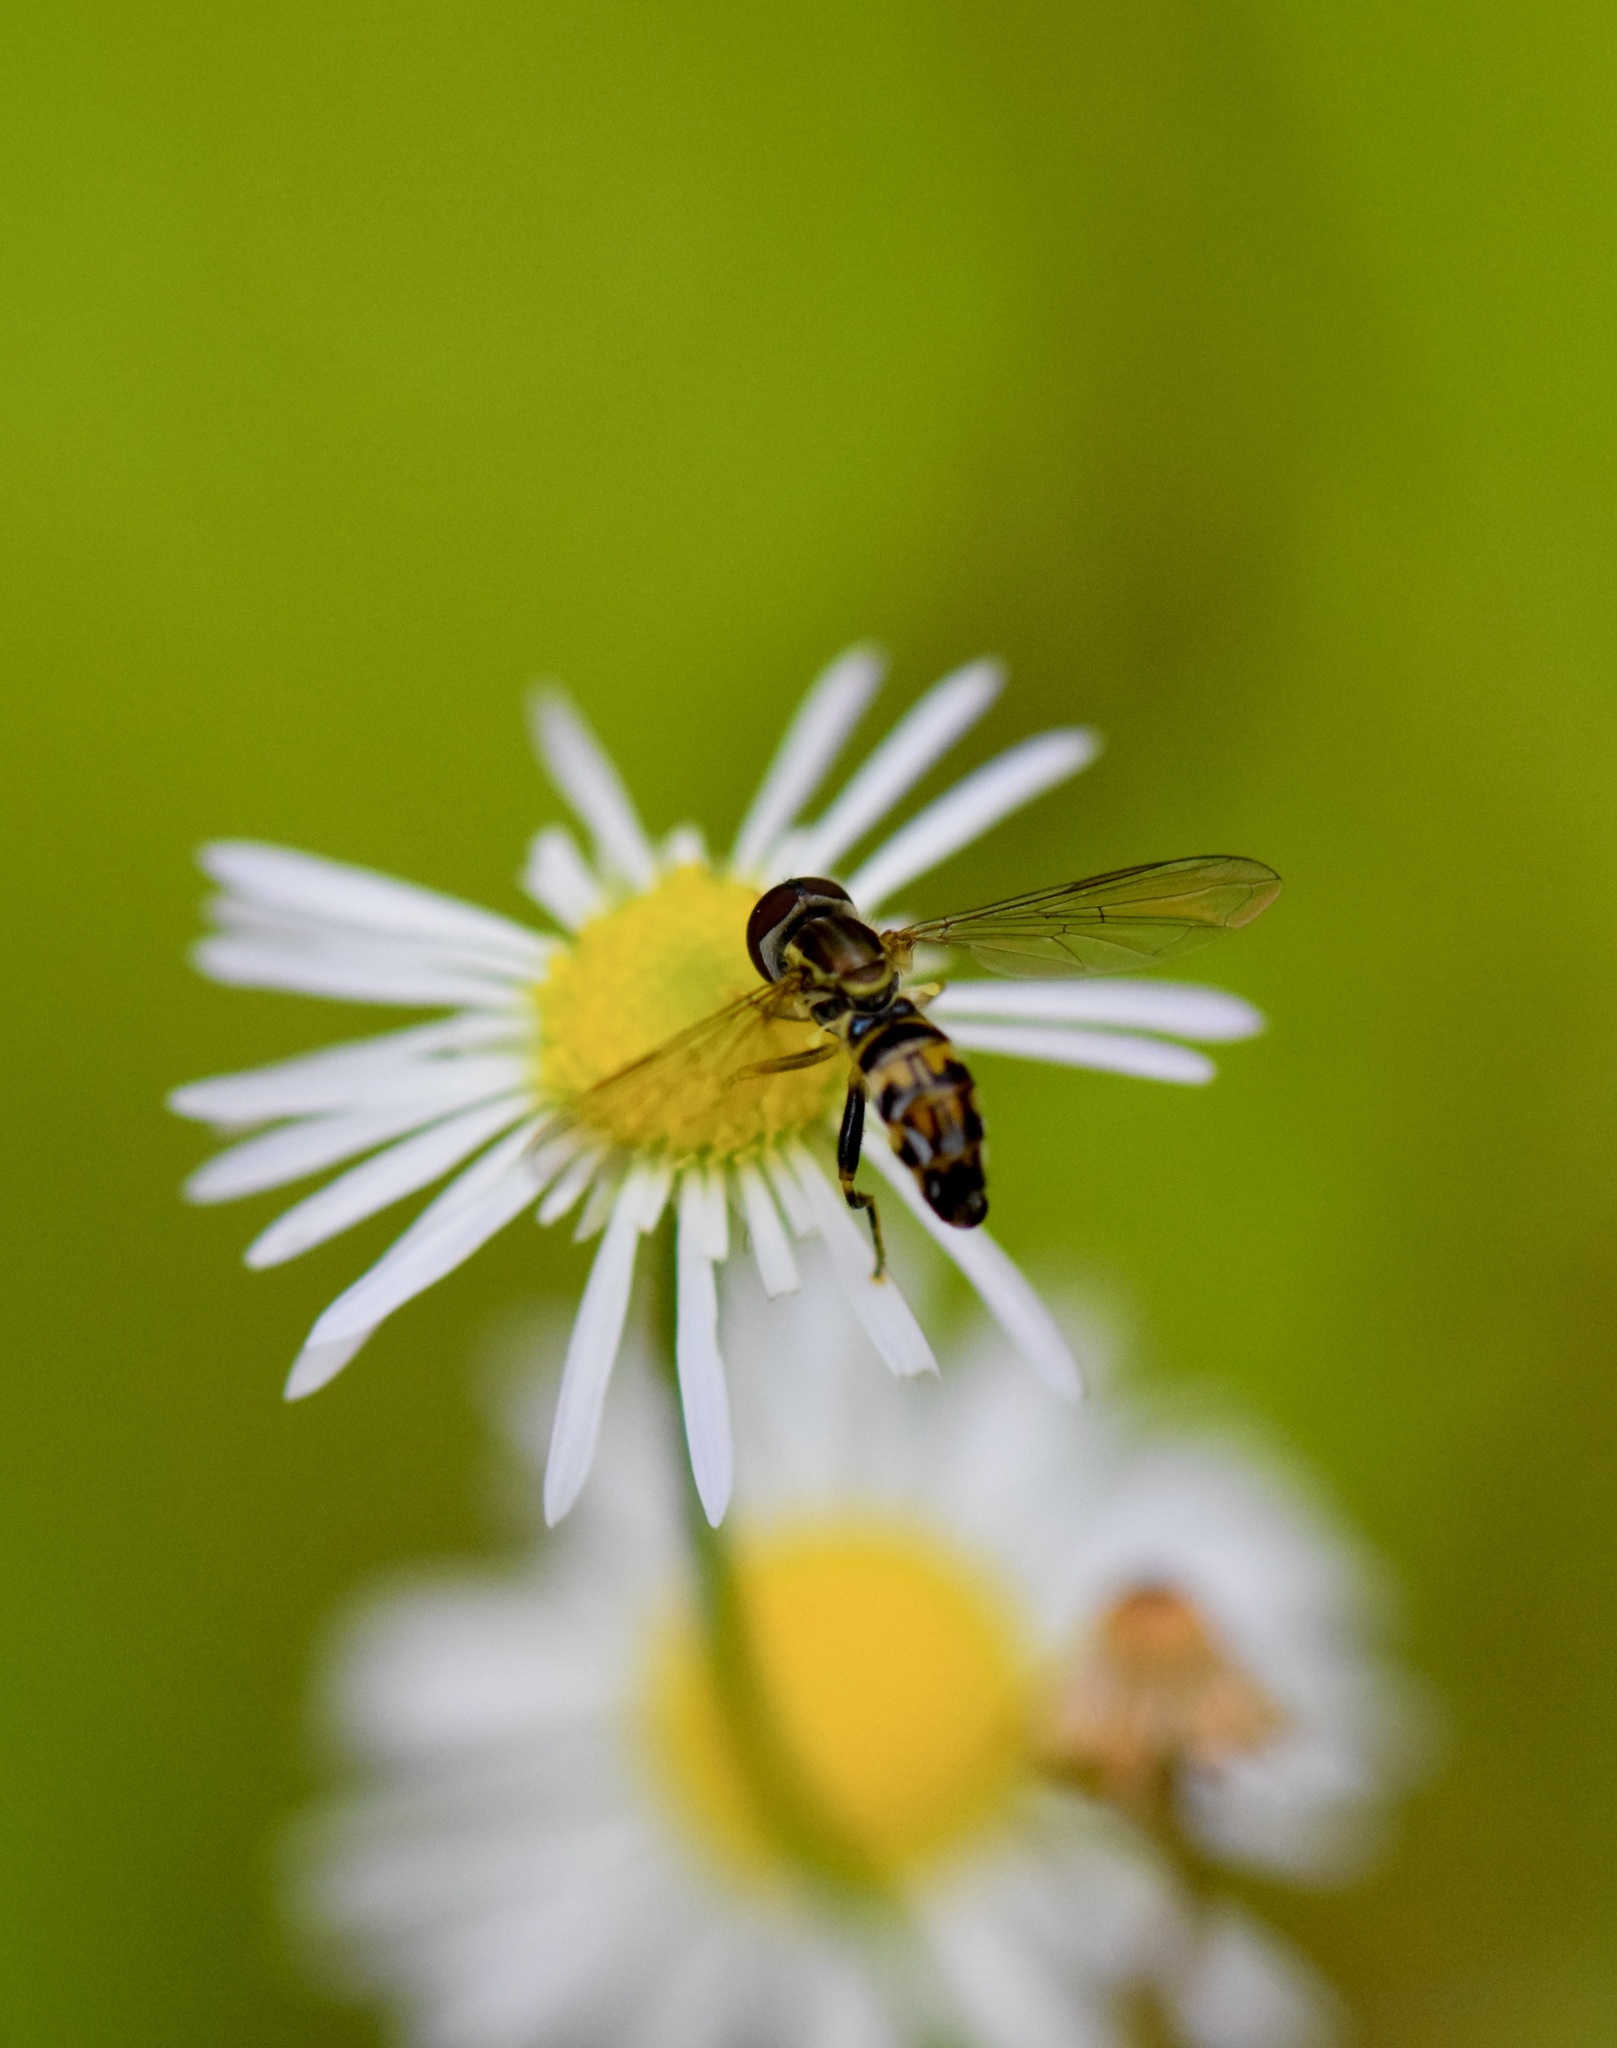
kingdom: Animalia
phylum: Arthropoda
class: Insecta
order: Diptera
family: Syrphidae
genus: Toxomerus
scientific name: Toxomerus geminatus
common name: Eastern calligrapher
